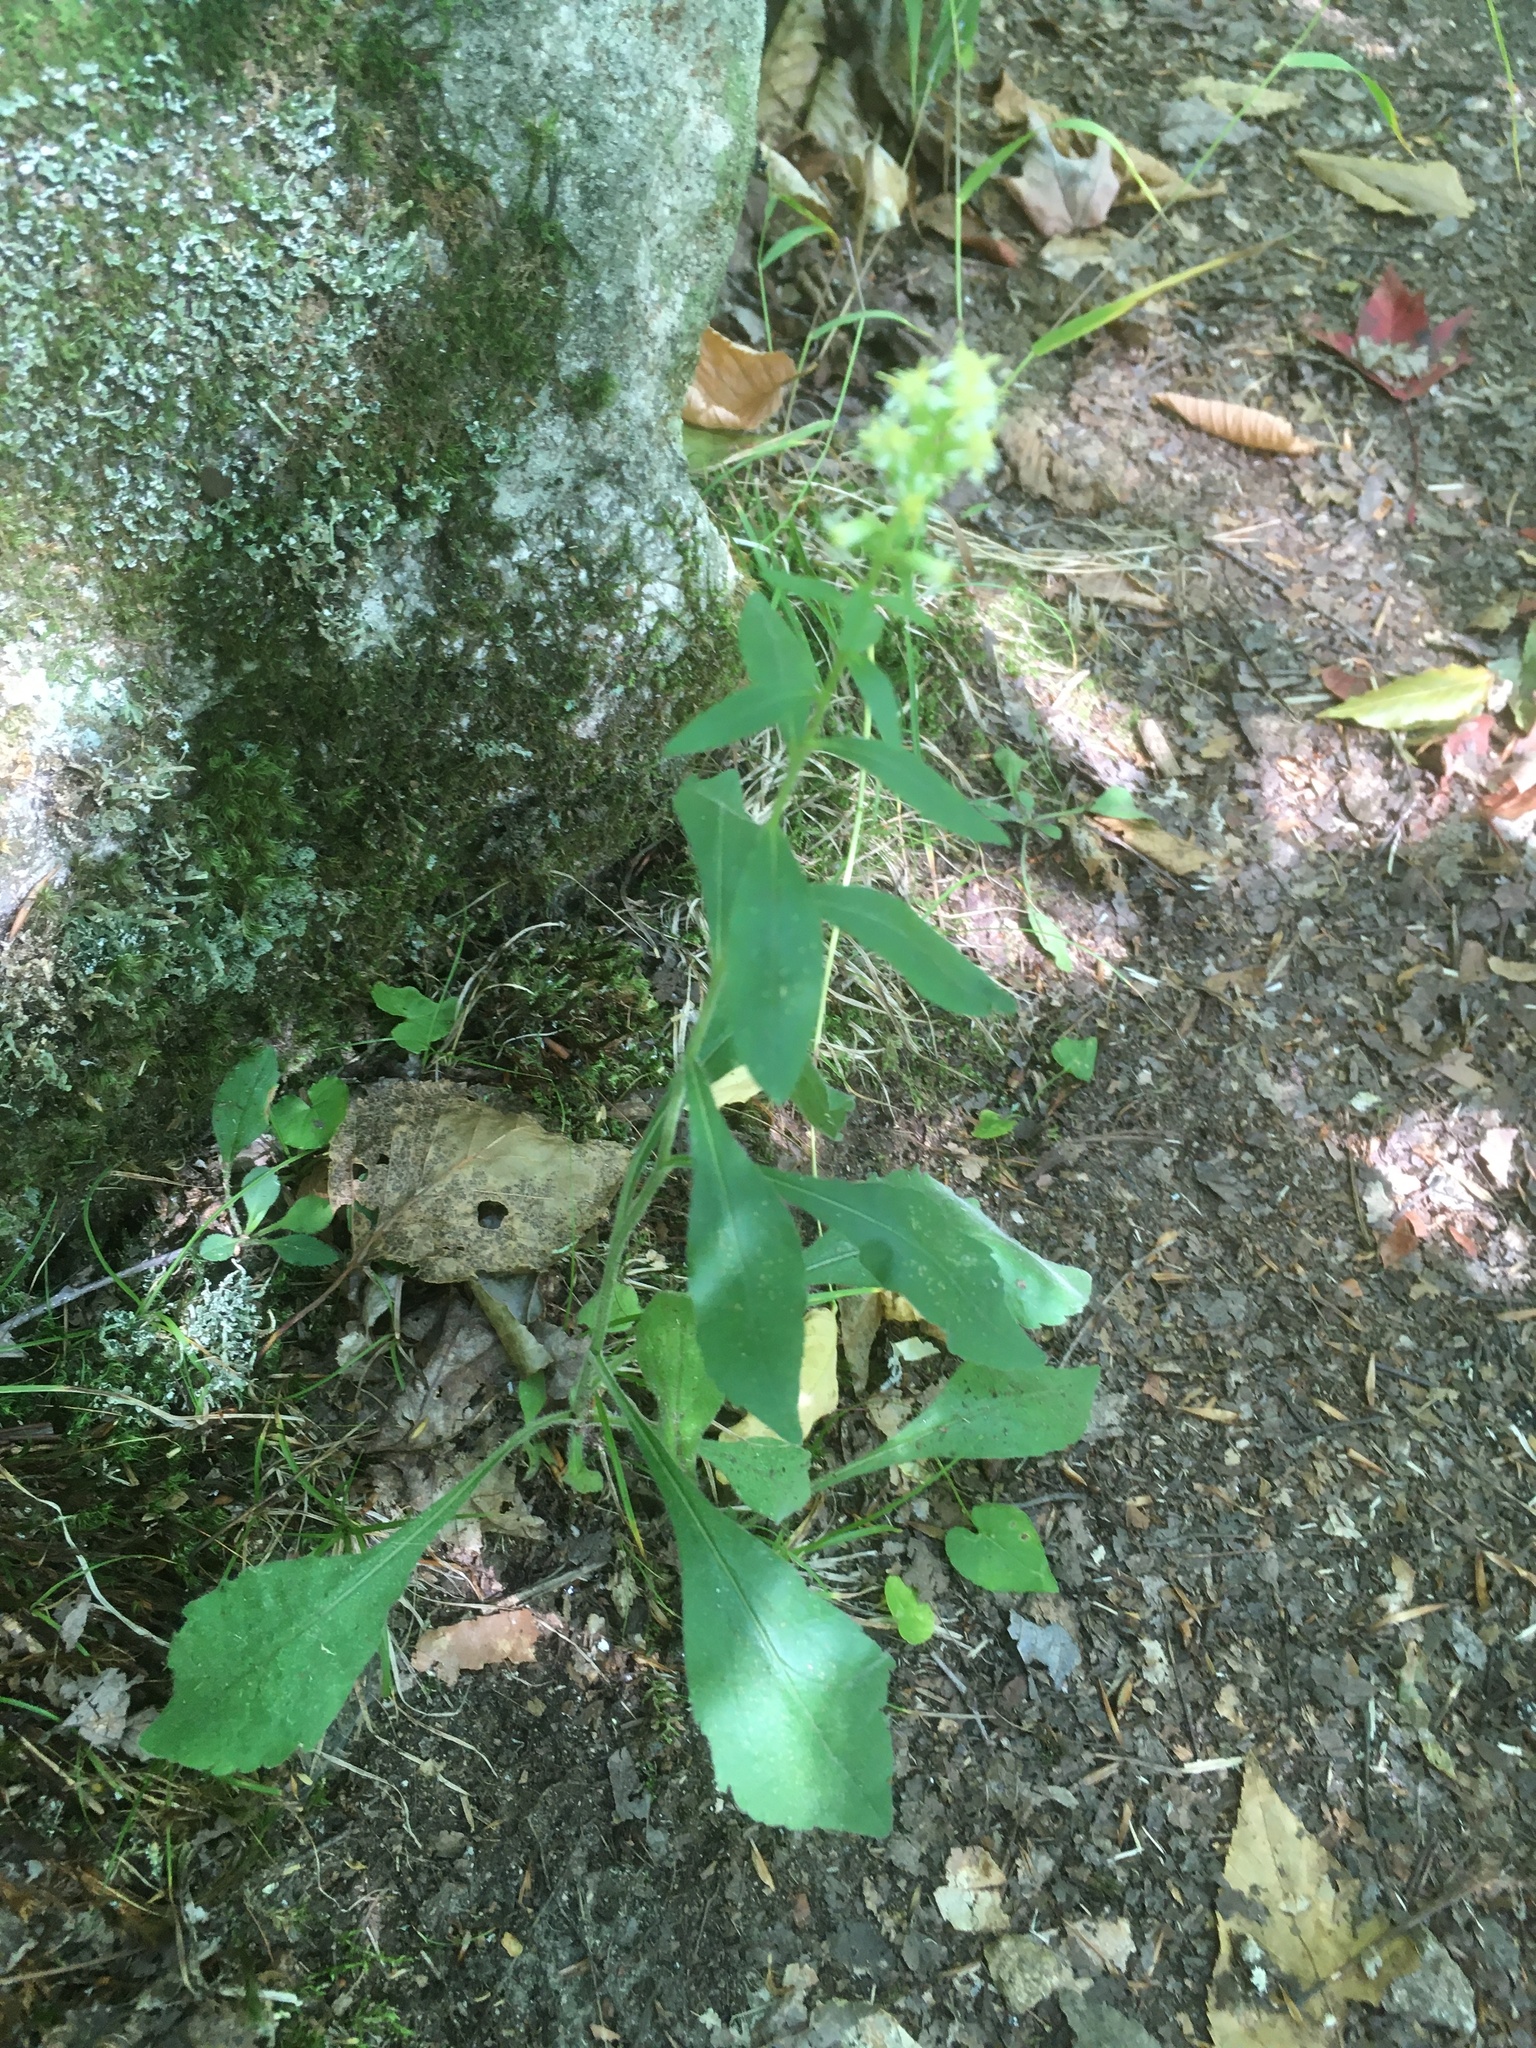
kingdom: Plantae
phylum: Tracheophyta
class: Magnoliopsida
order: Asterales
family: Asteraceae
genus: Solidago
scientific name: Solidago bicolor
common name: Silverrod
